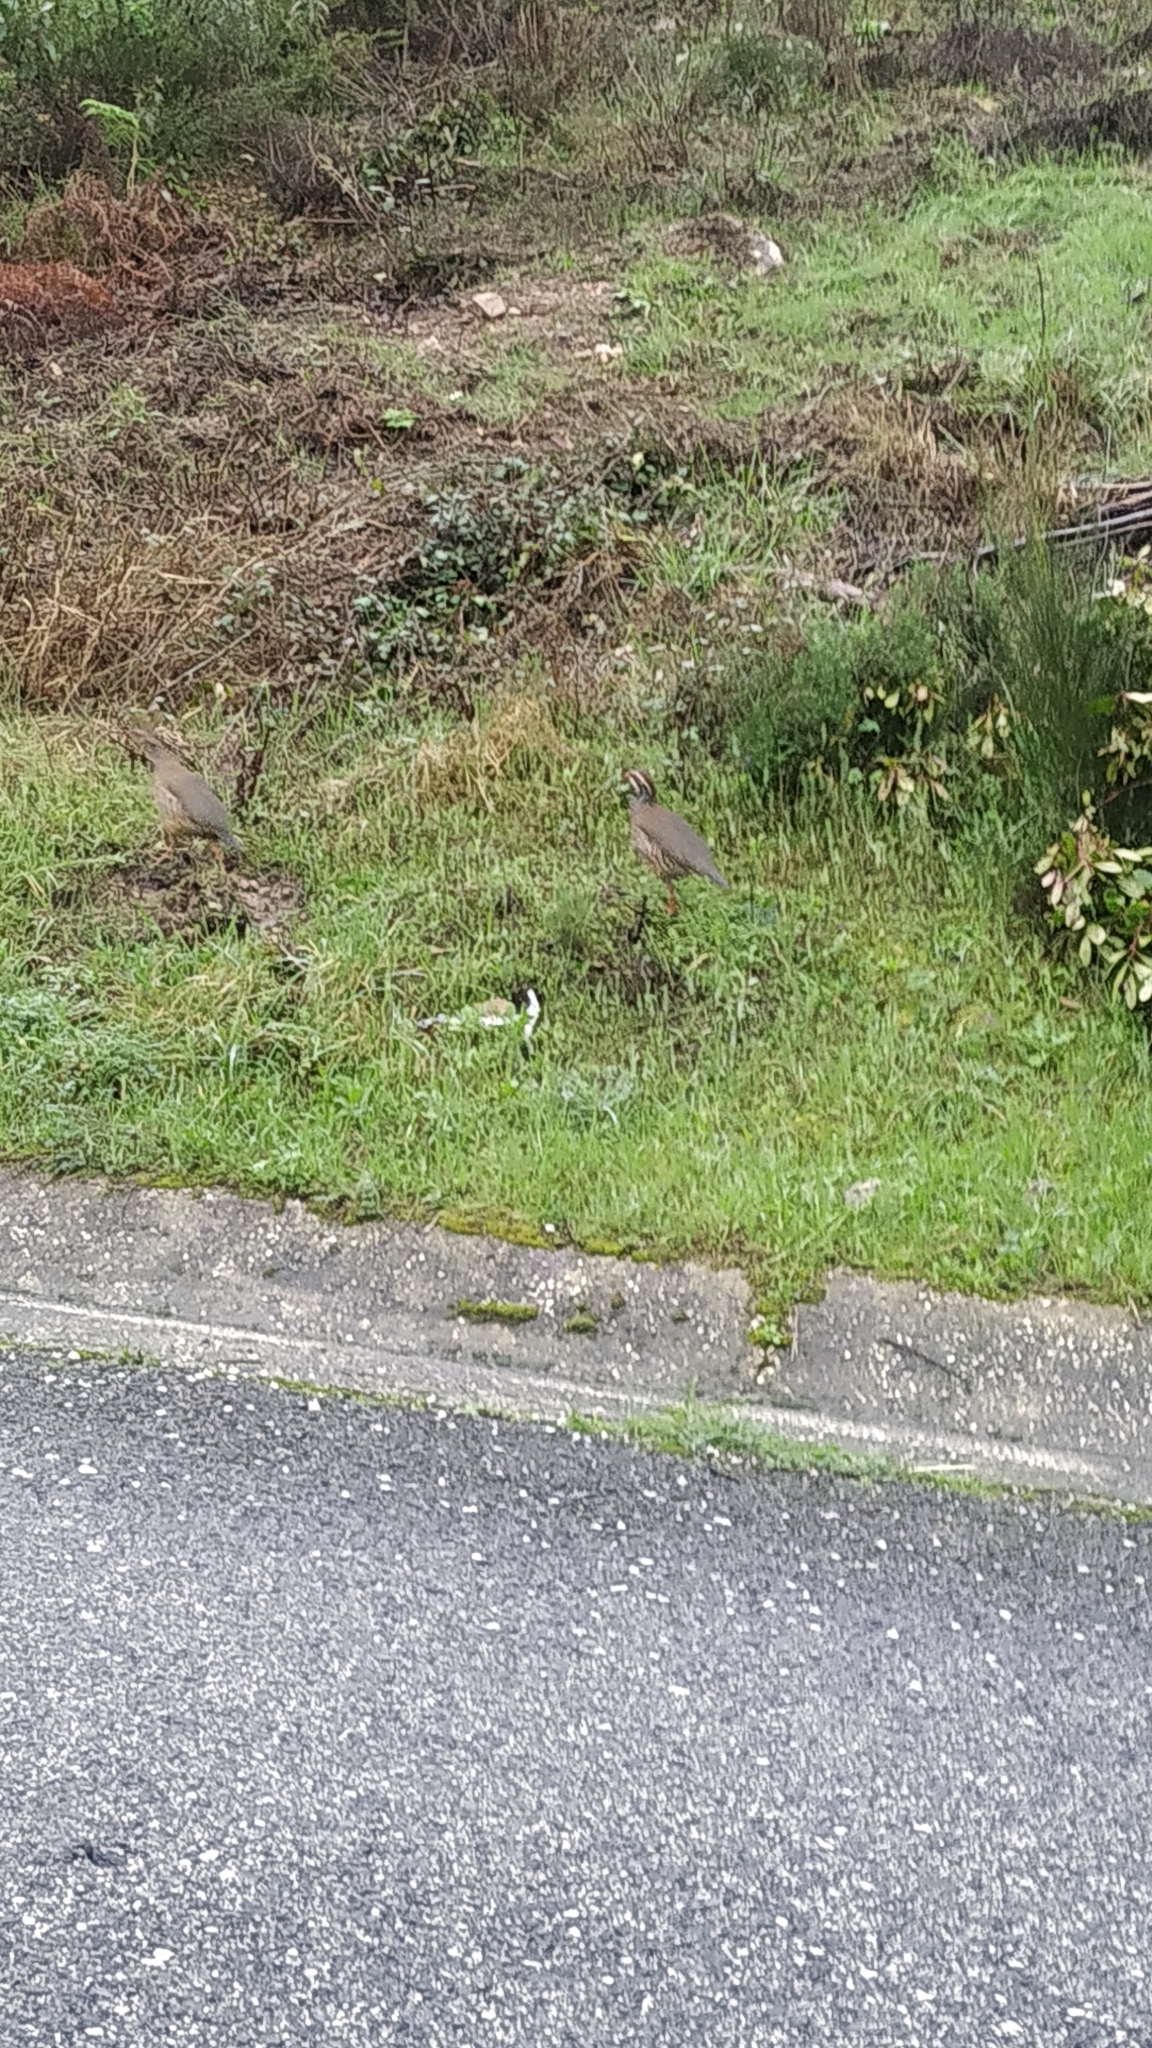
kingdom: Animalia
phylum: Chordata
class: Aves
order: Galliformes
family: Phasianidae
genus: Alectoris
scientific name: Alectoris rufa
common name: Red-legged partridge
